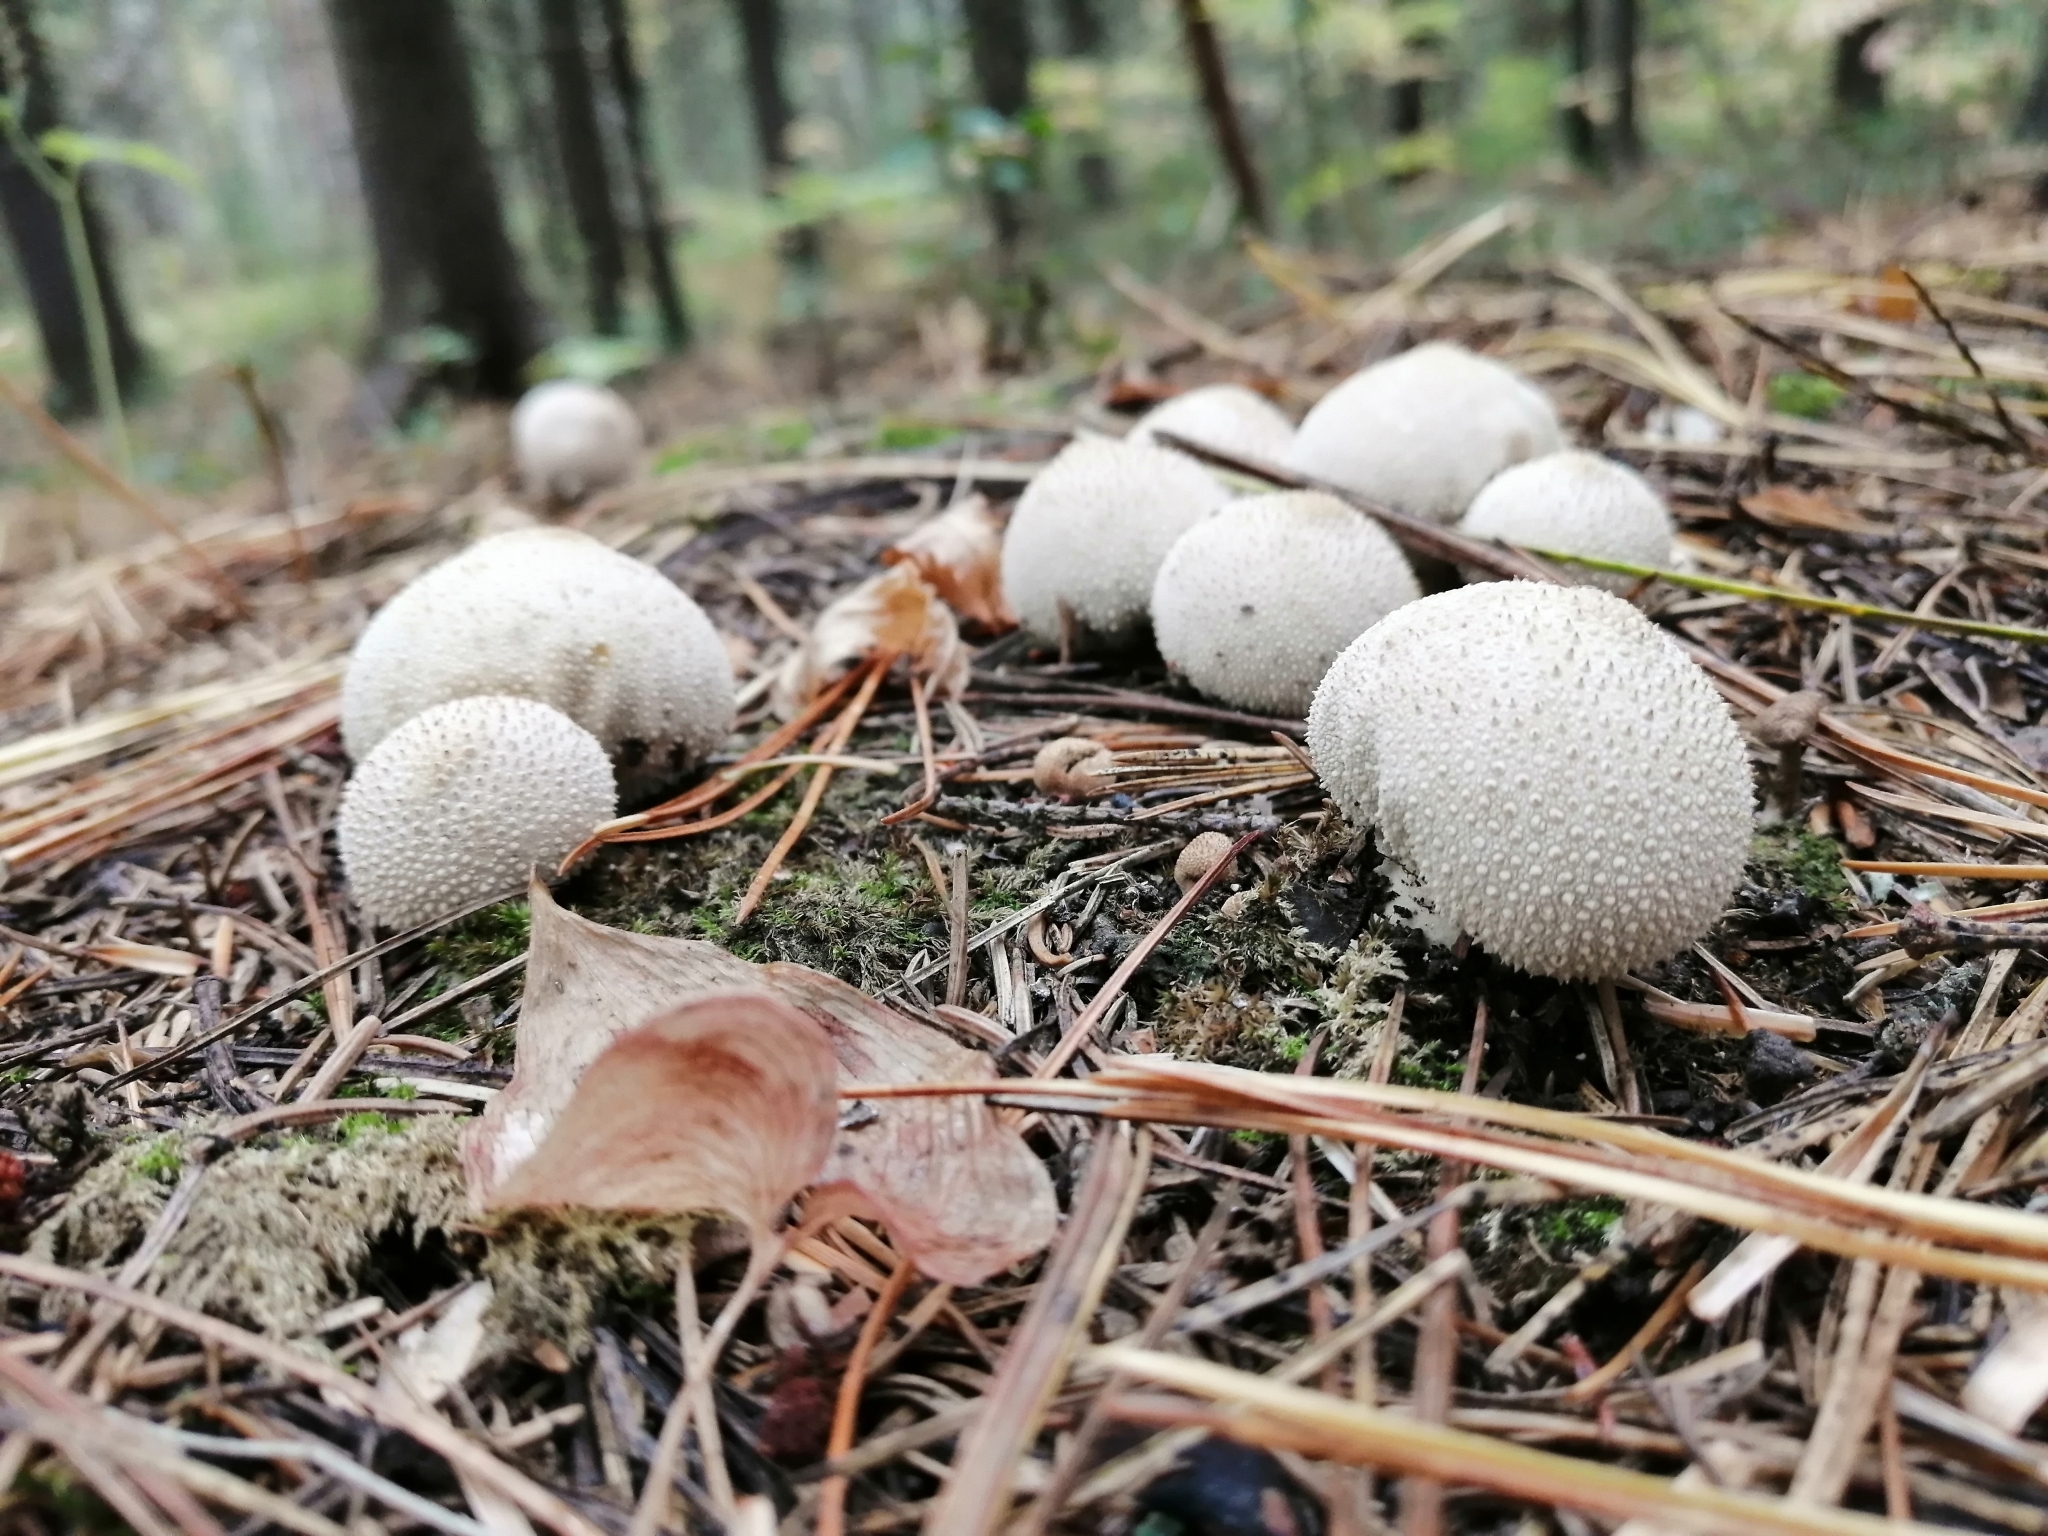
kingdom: Fungi
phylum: Basidiomycota
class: Agaricomycetes
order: Agaricales
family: Lycoperdaceae
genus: Lycoperdon
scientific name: Lycoperdon perlatum
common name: Common puffball
